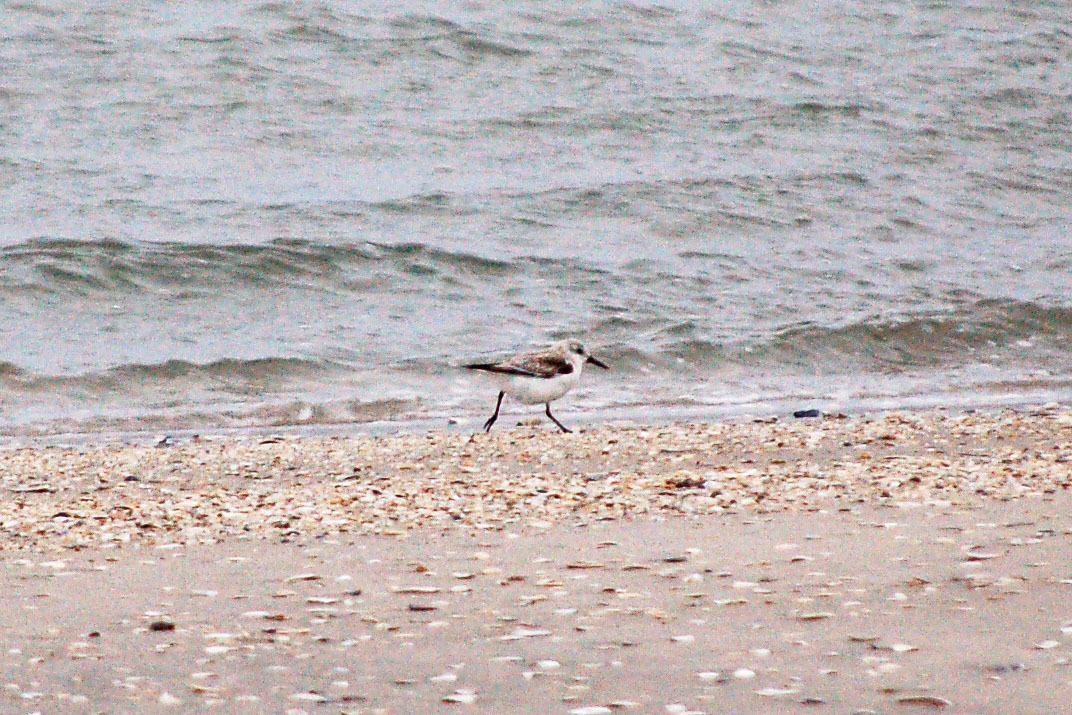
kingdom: Animalia
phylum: Chordata
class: Aves
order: Charadriiformes
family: Scolopacidae
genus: Calidris
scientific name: Calidris alba
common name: Sanderling
